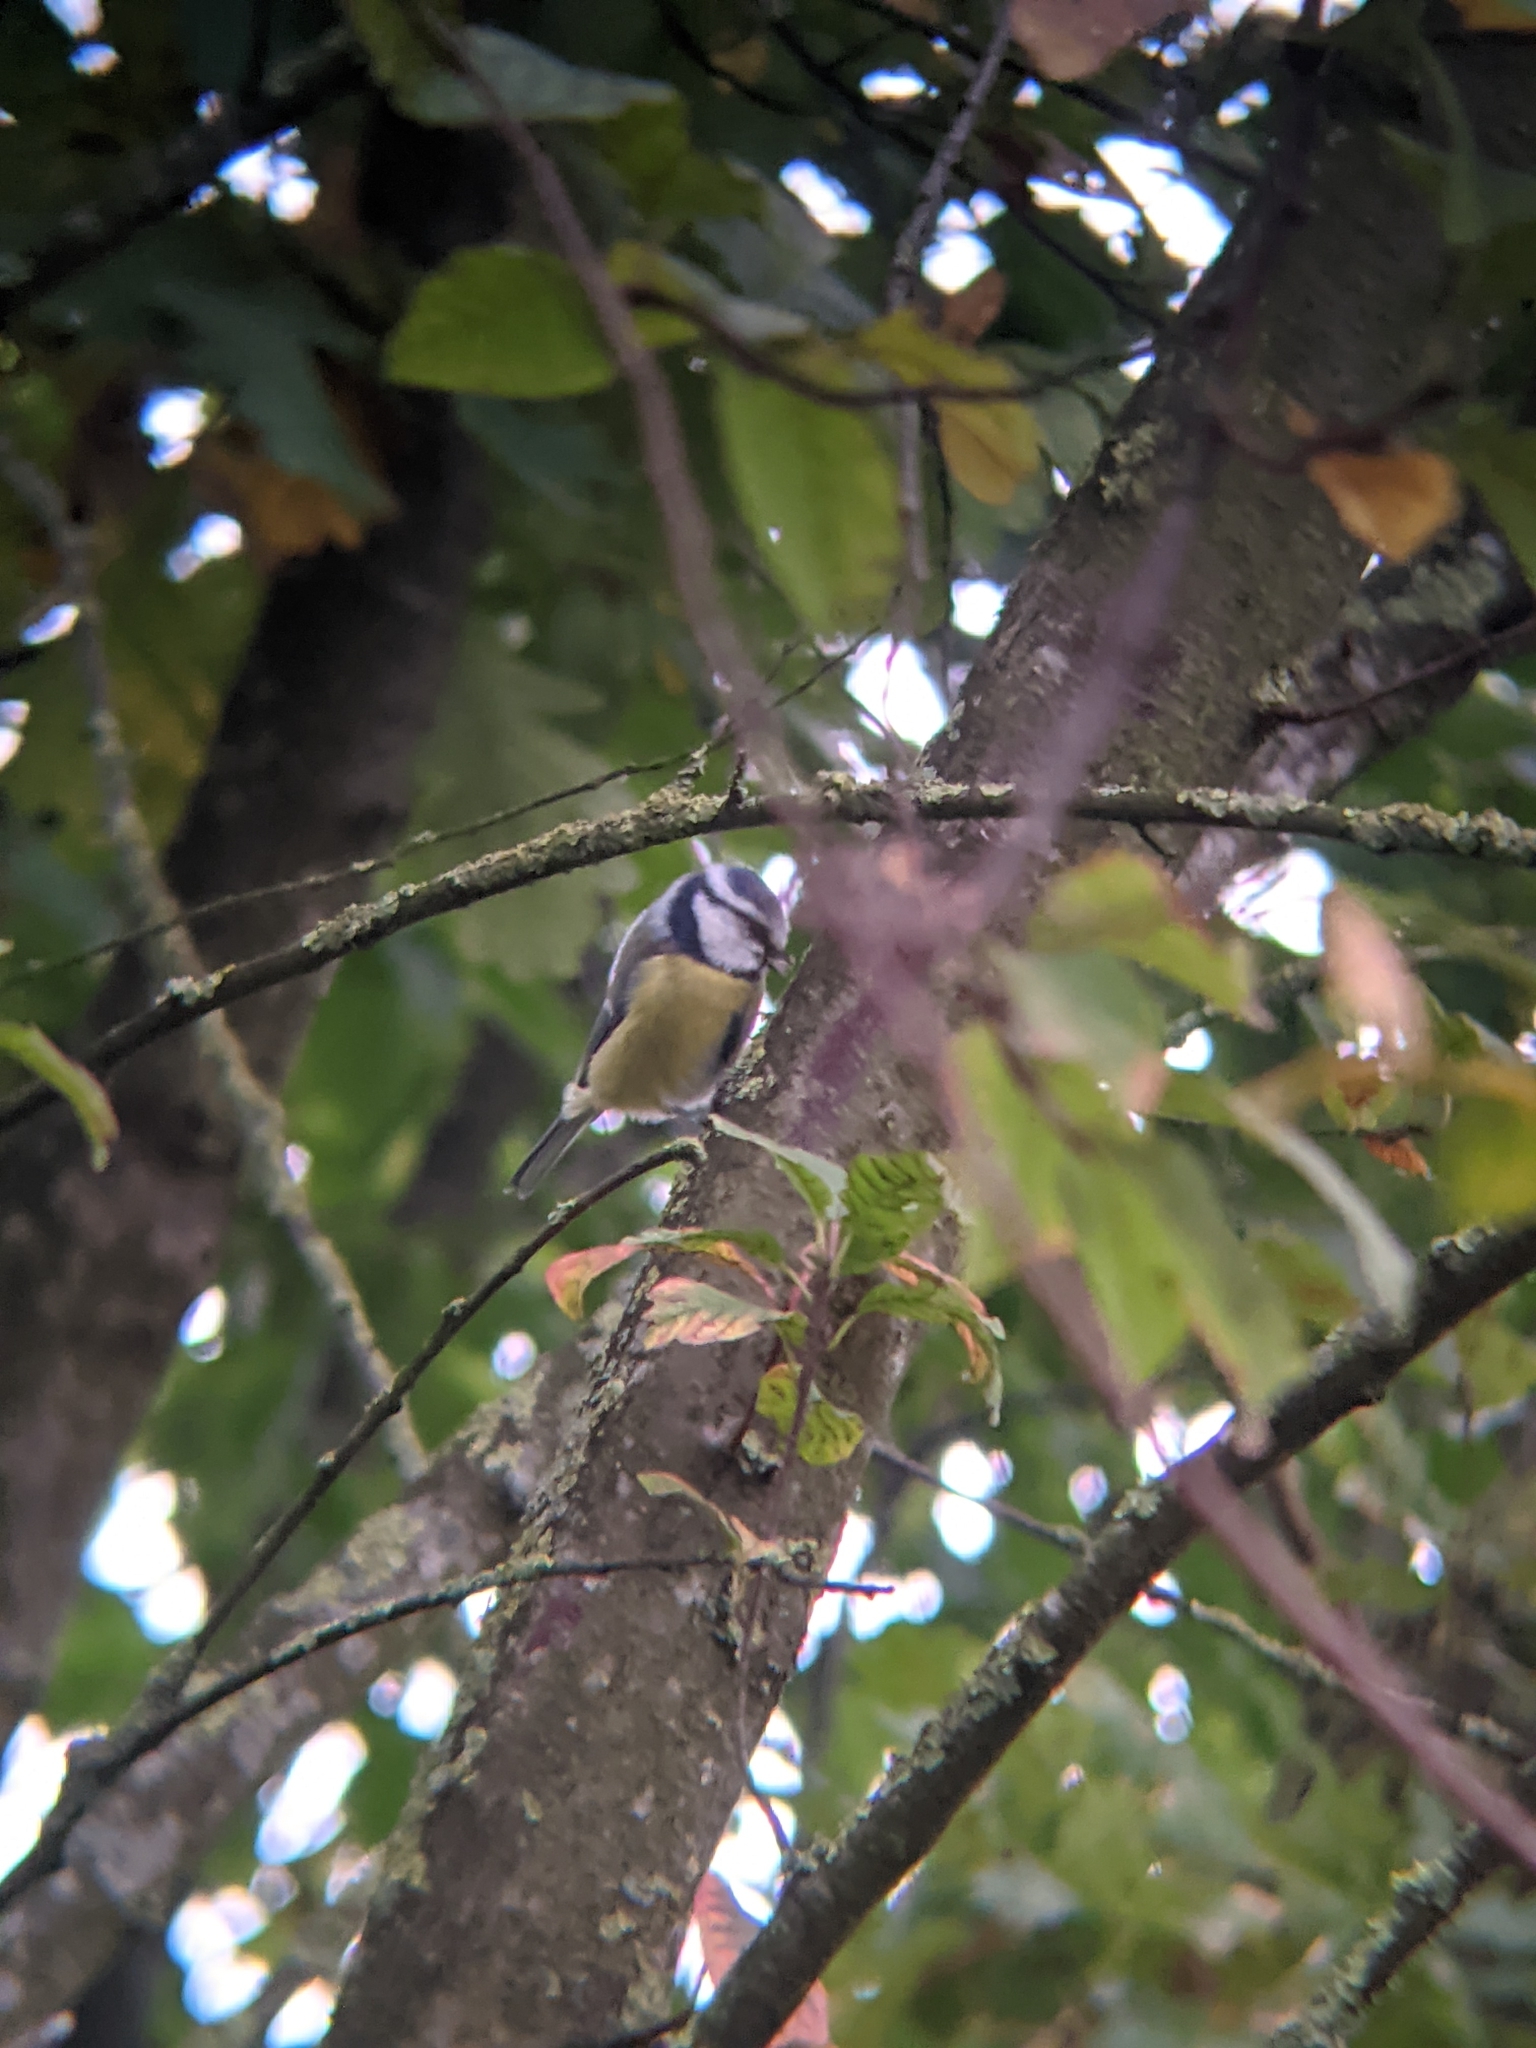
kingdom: Animalia
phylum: Chordata
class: Aves
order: Passeriformes
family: Paridae
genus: Cyanistes
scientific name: Cyanistes caeruleus
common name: Eurasian blue tit
